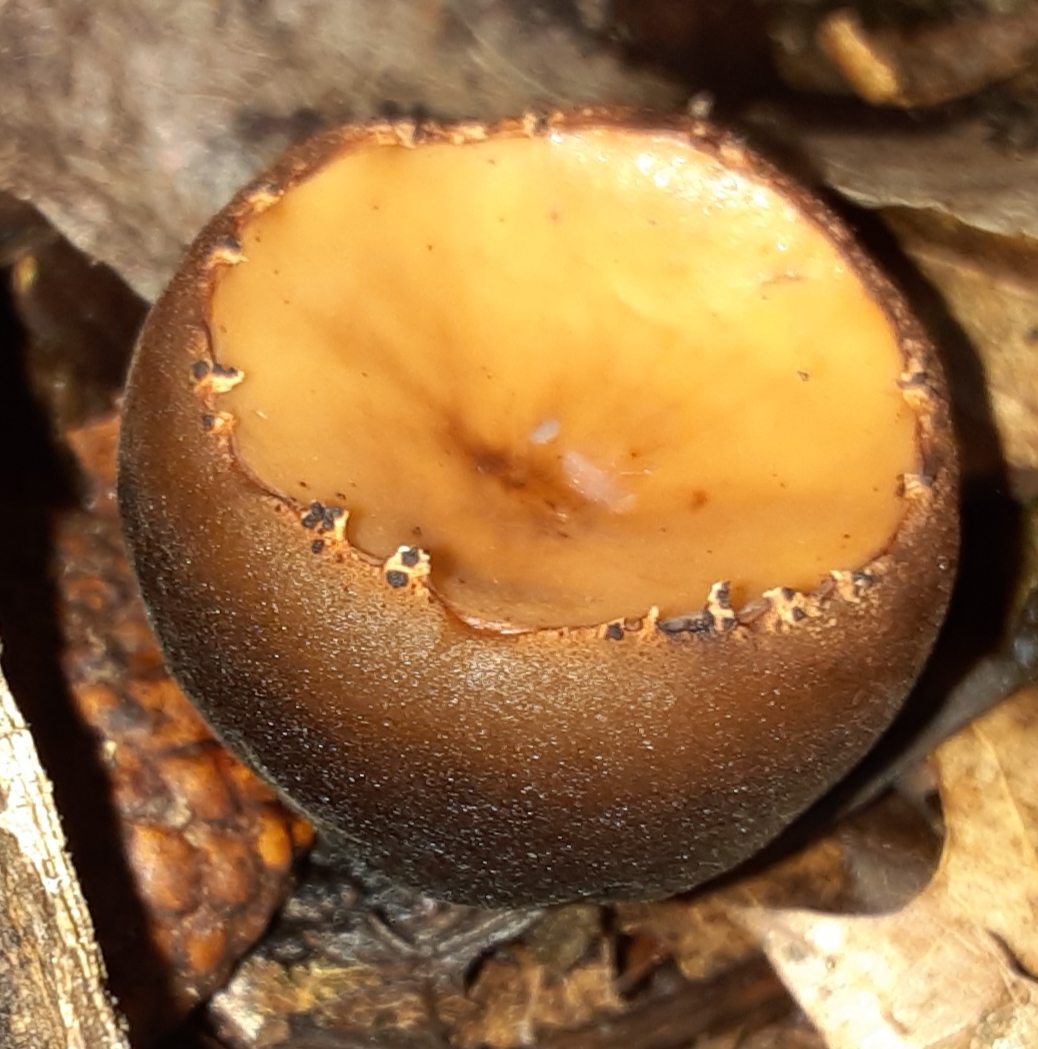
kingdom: Fungi
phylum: Ascomycota
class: Pezizomycetes
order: Pezizales
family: Sarcosomataceae
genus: Galiella
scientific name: Galiella rufa
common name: Hairy rubber cup
